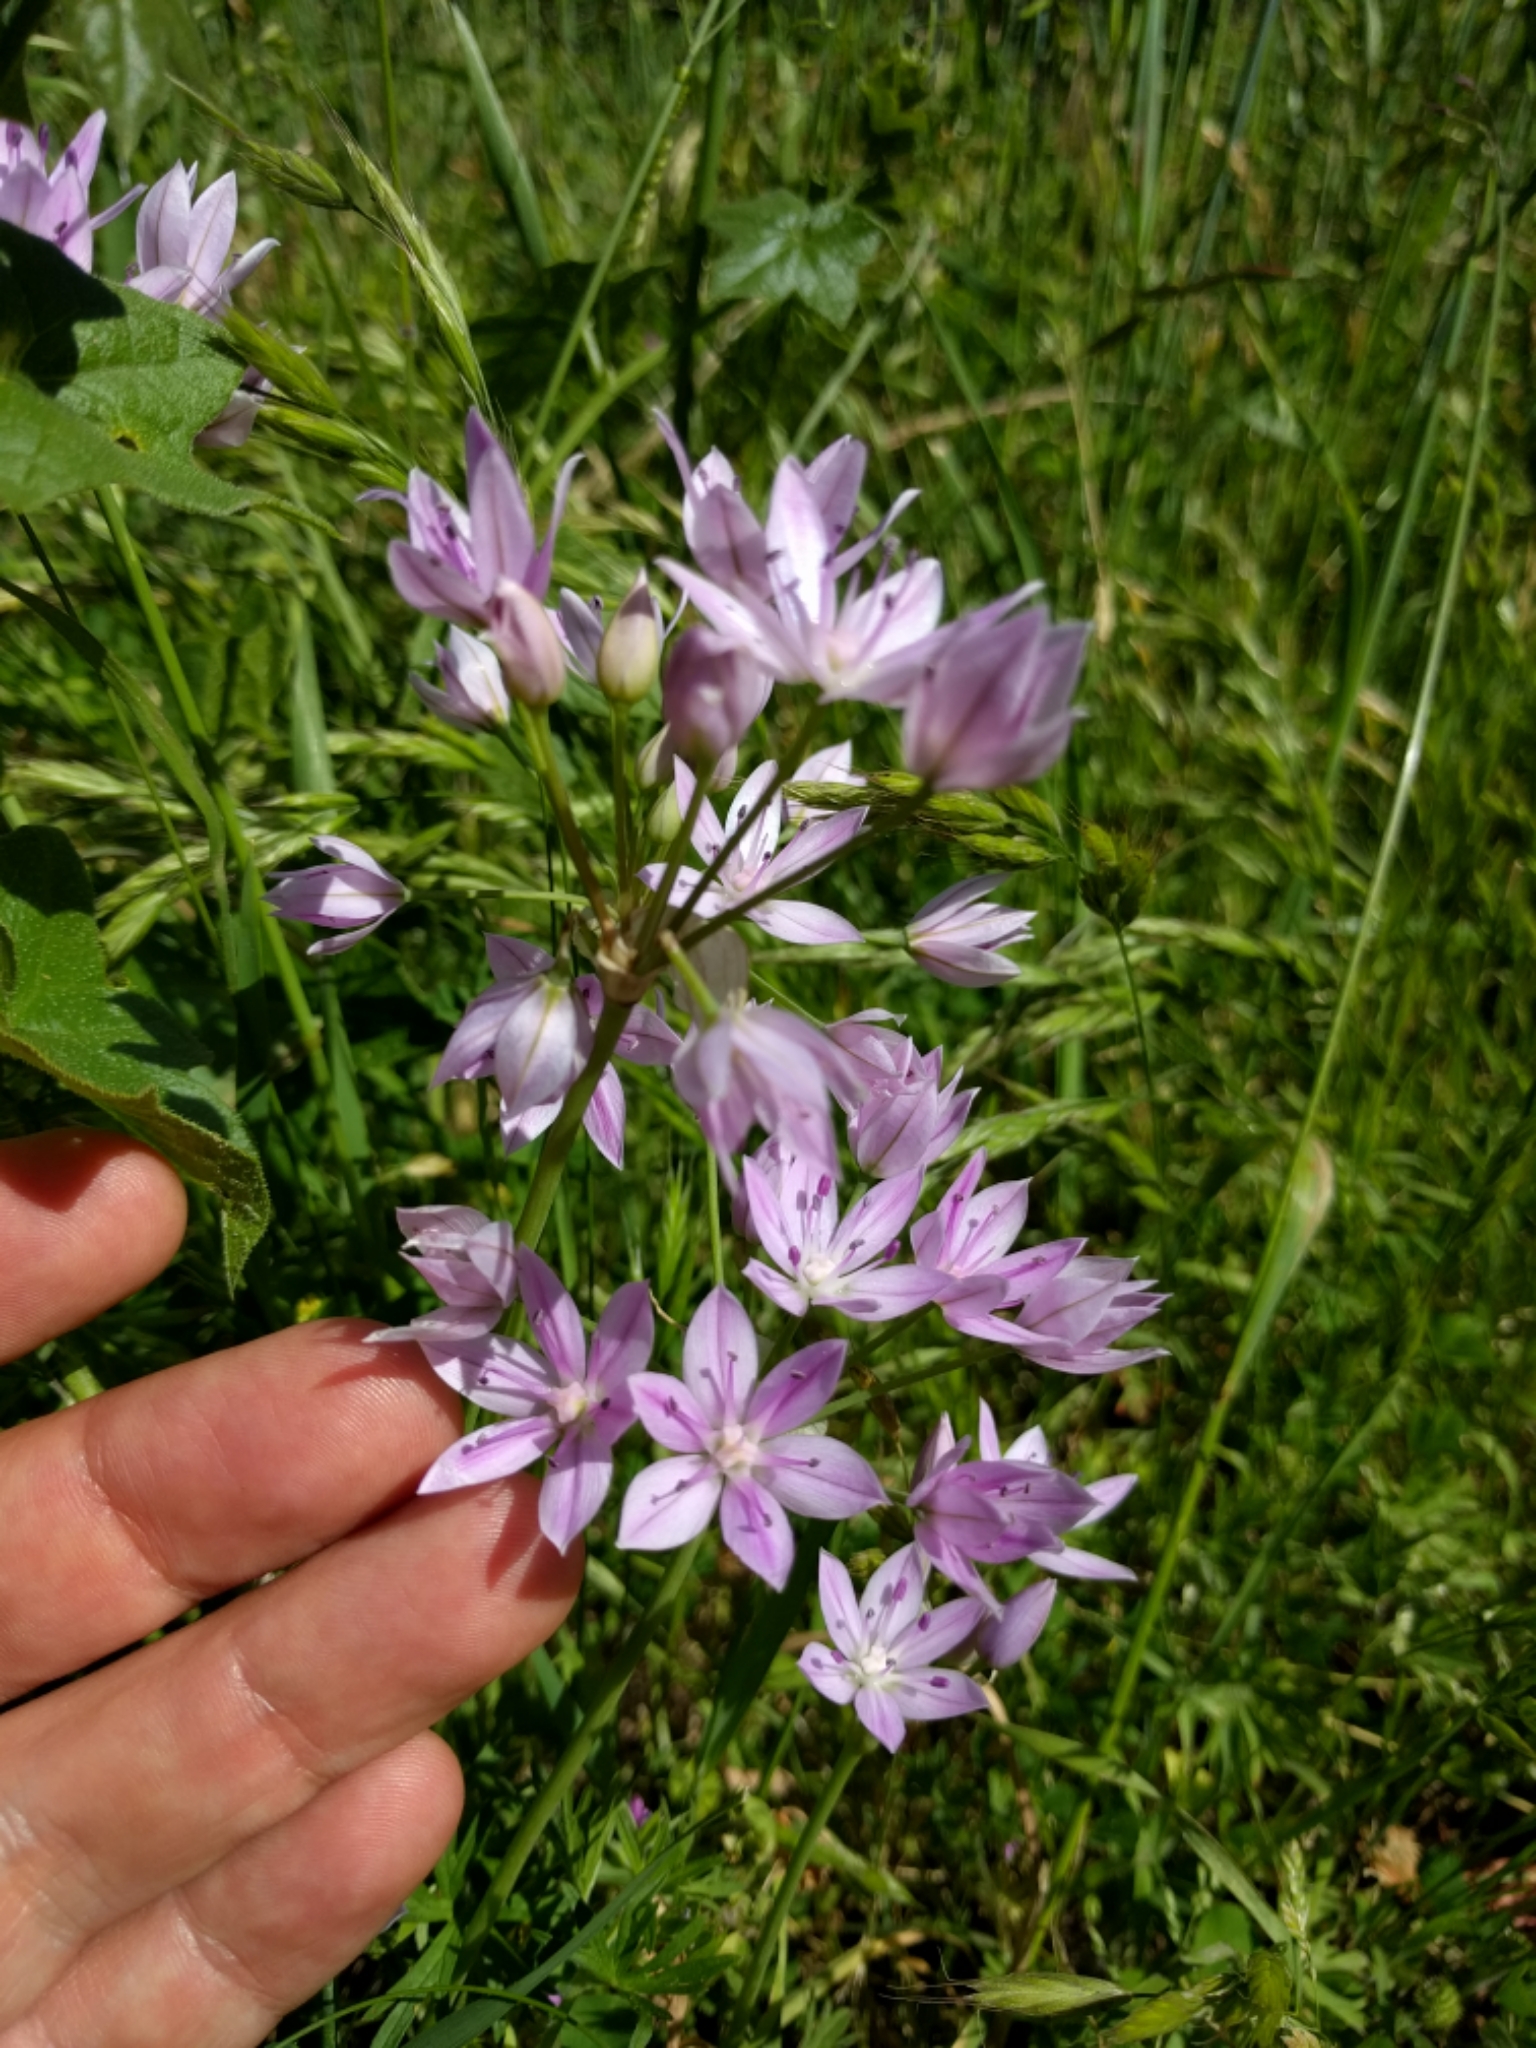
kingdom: Plantae
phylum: Tracheophyta
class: Liliopsida
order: Asparagales
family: Amaryllidaceae
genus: Allium
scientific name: Allium unifolium
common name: American garlic
